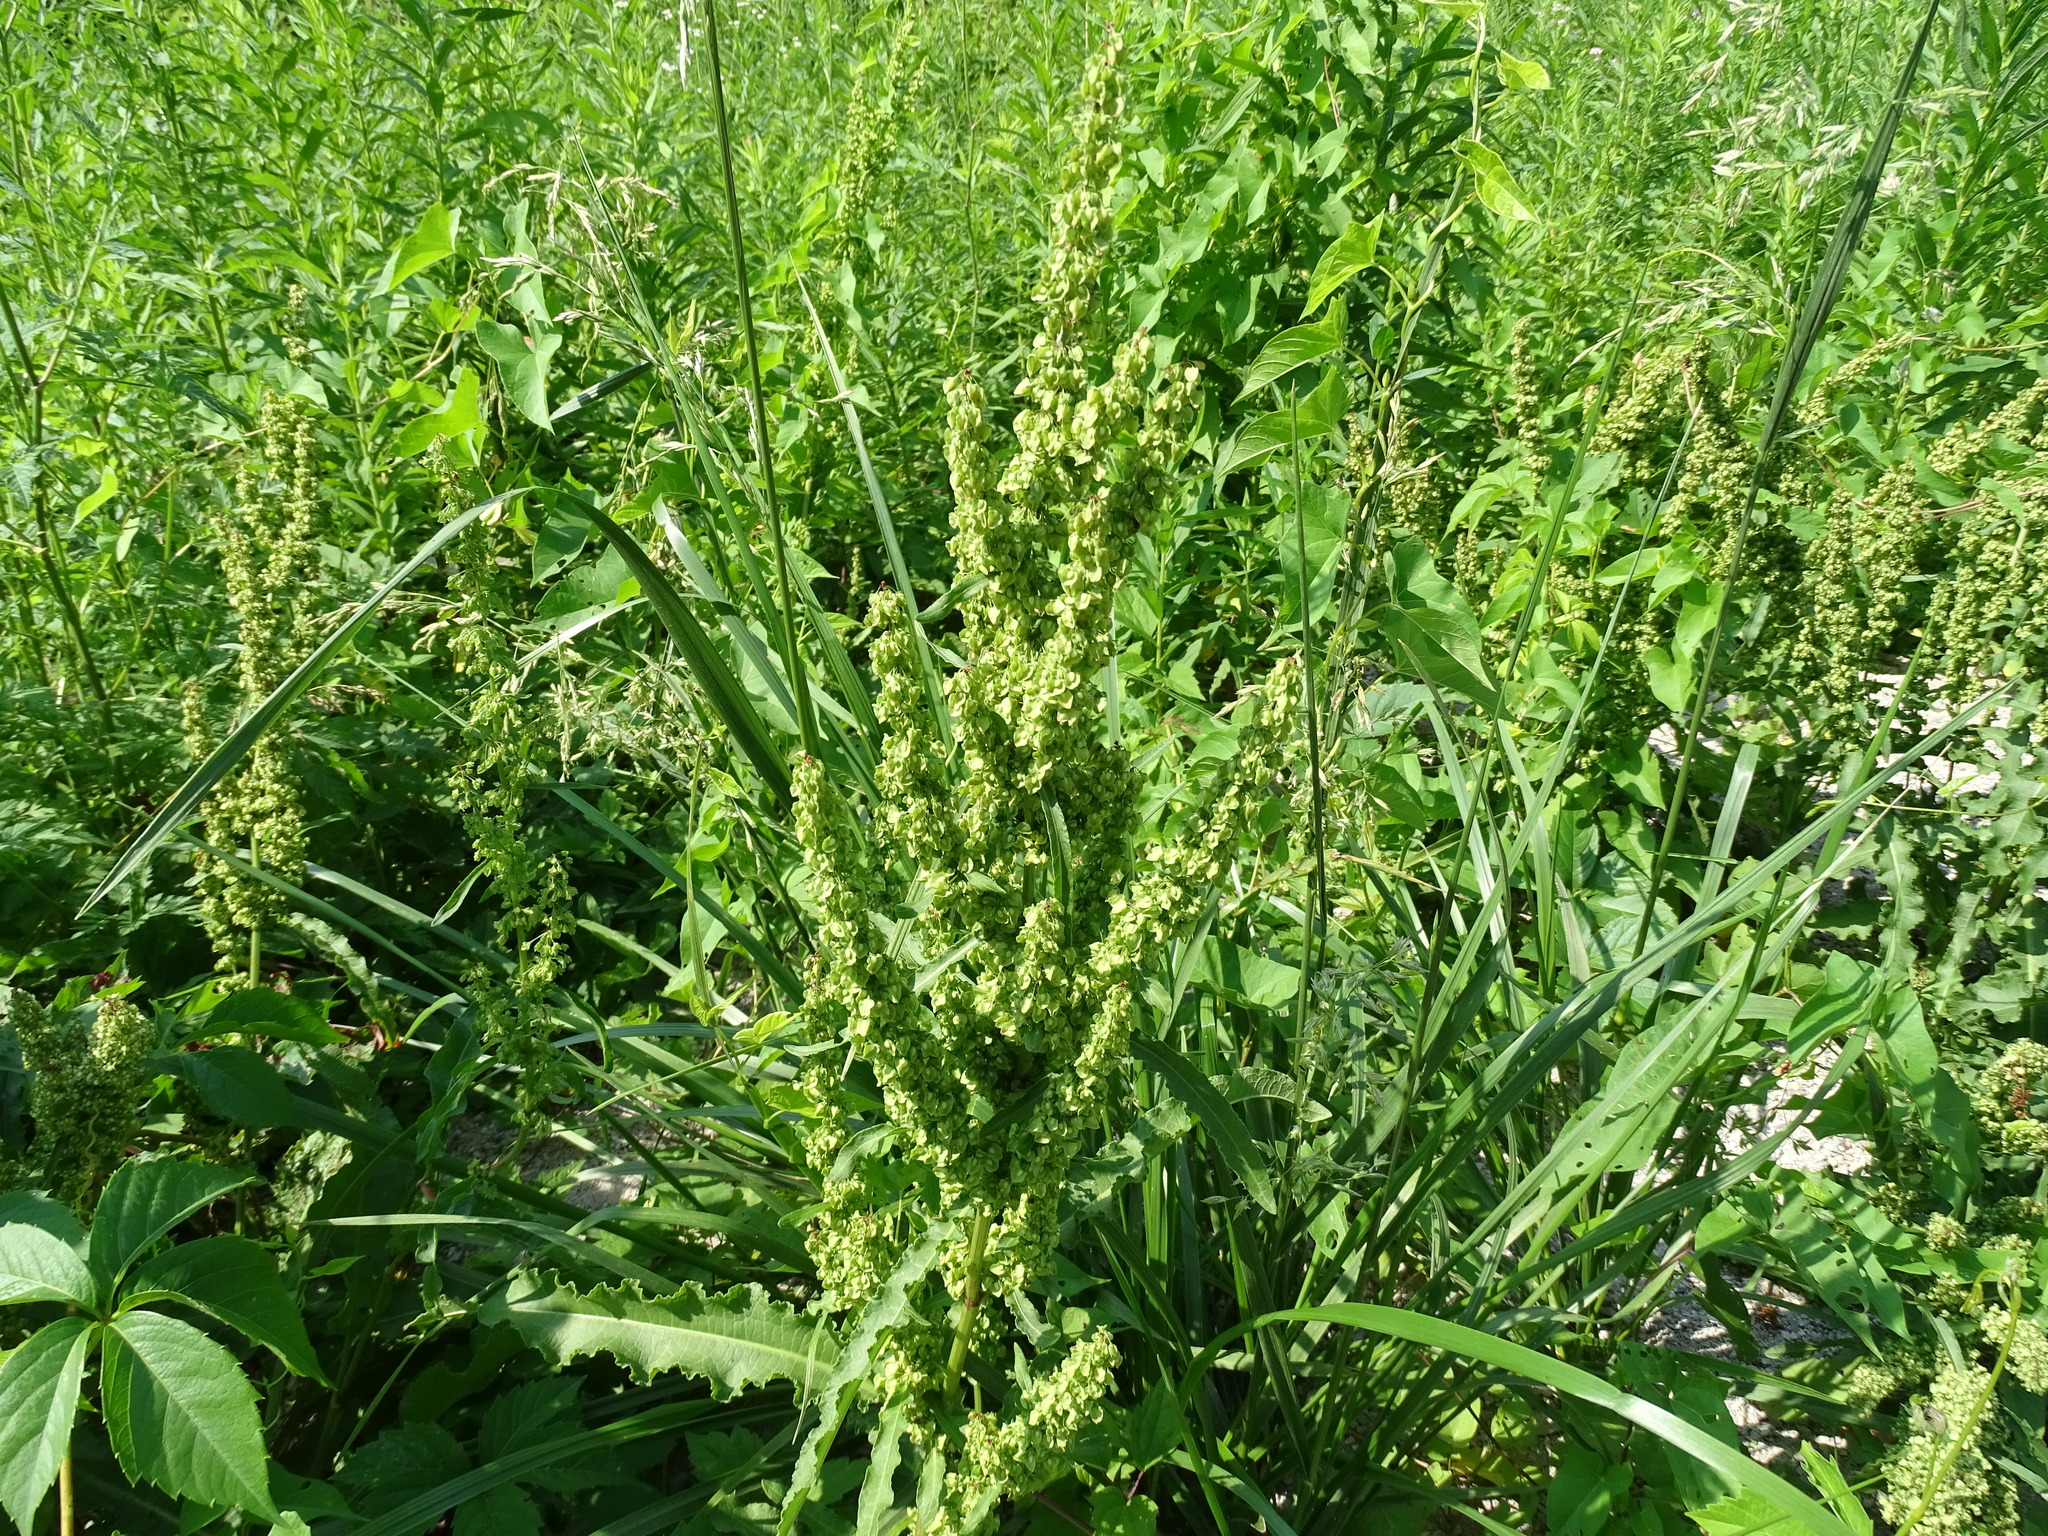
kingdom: Plantae
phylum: Tracheophyta
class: Magnoliopsida
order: Caryophyllales
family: Polygonaceae
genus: Rumex
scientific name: Rumex crispus
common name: Curled dock
